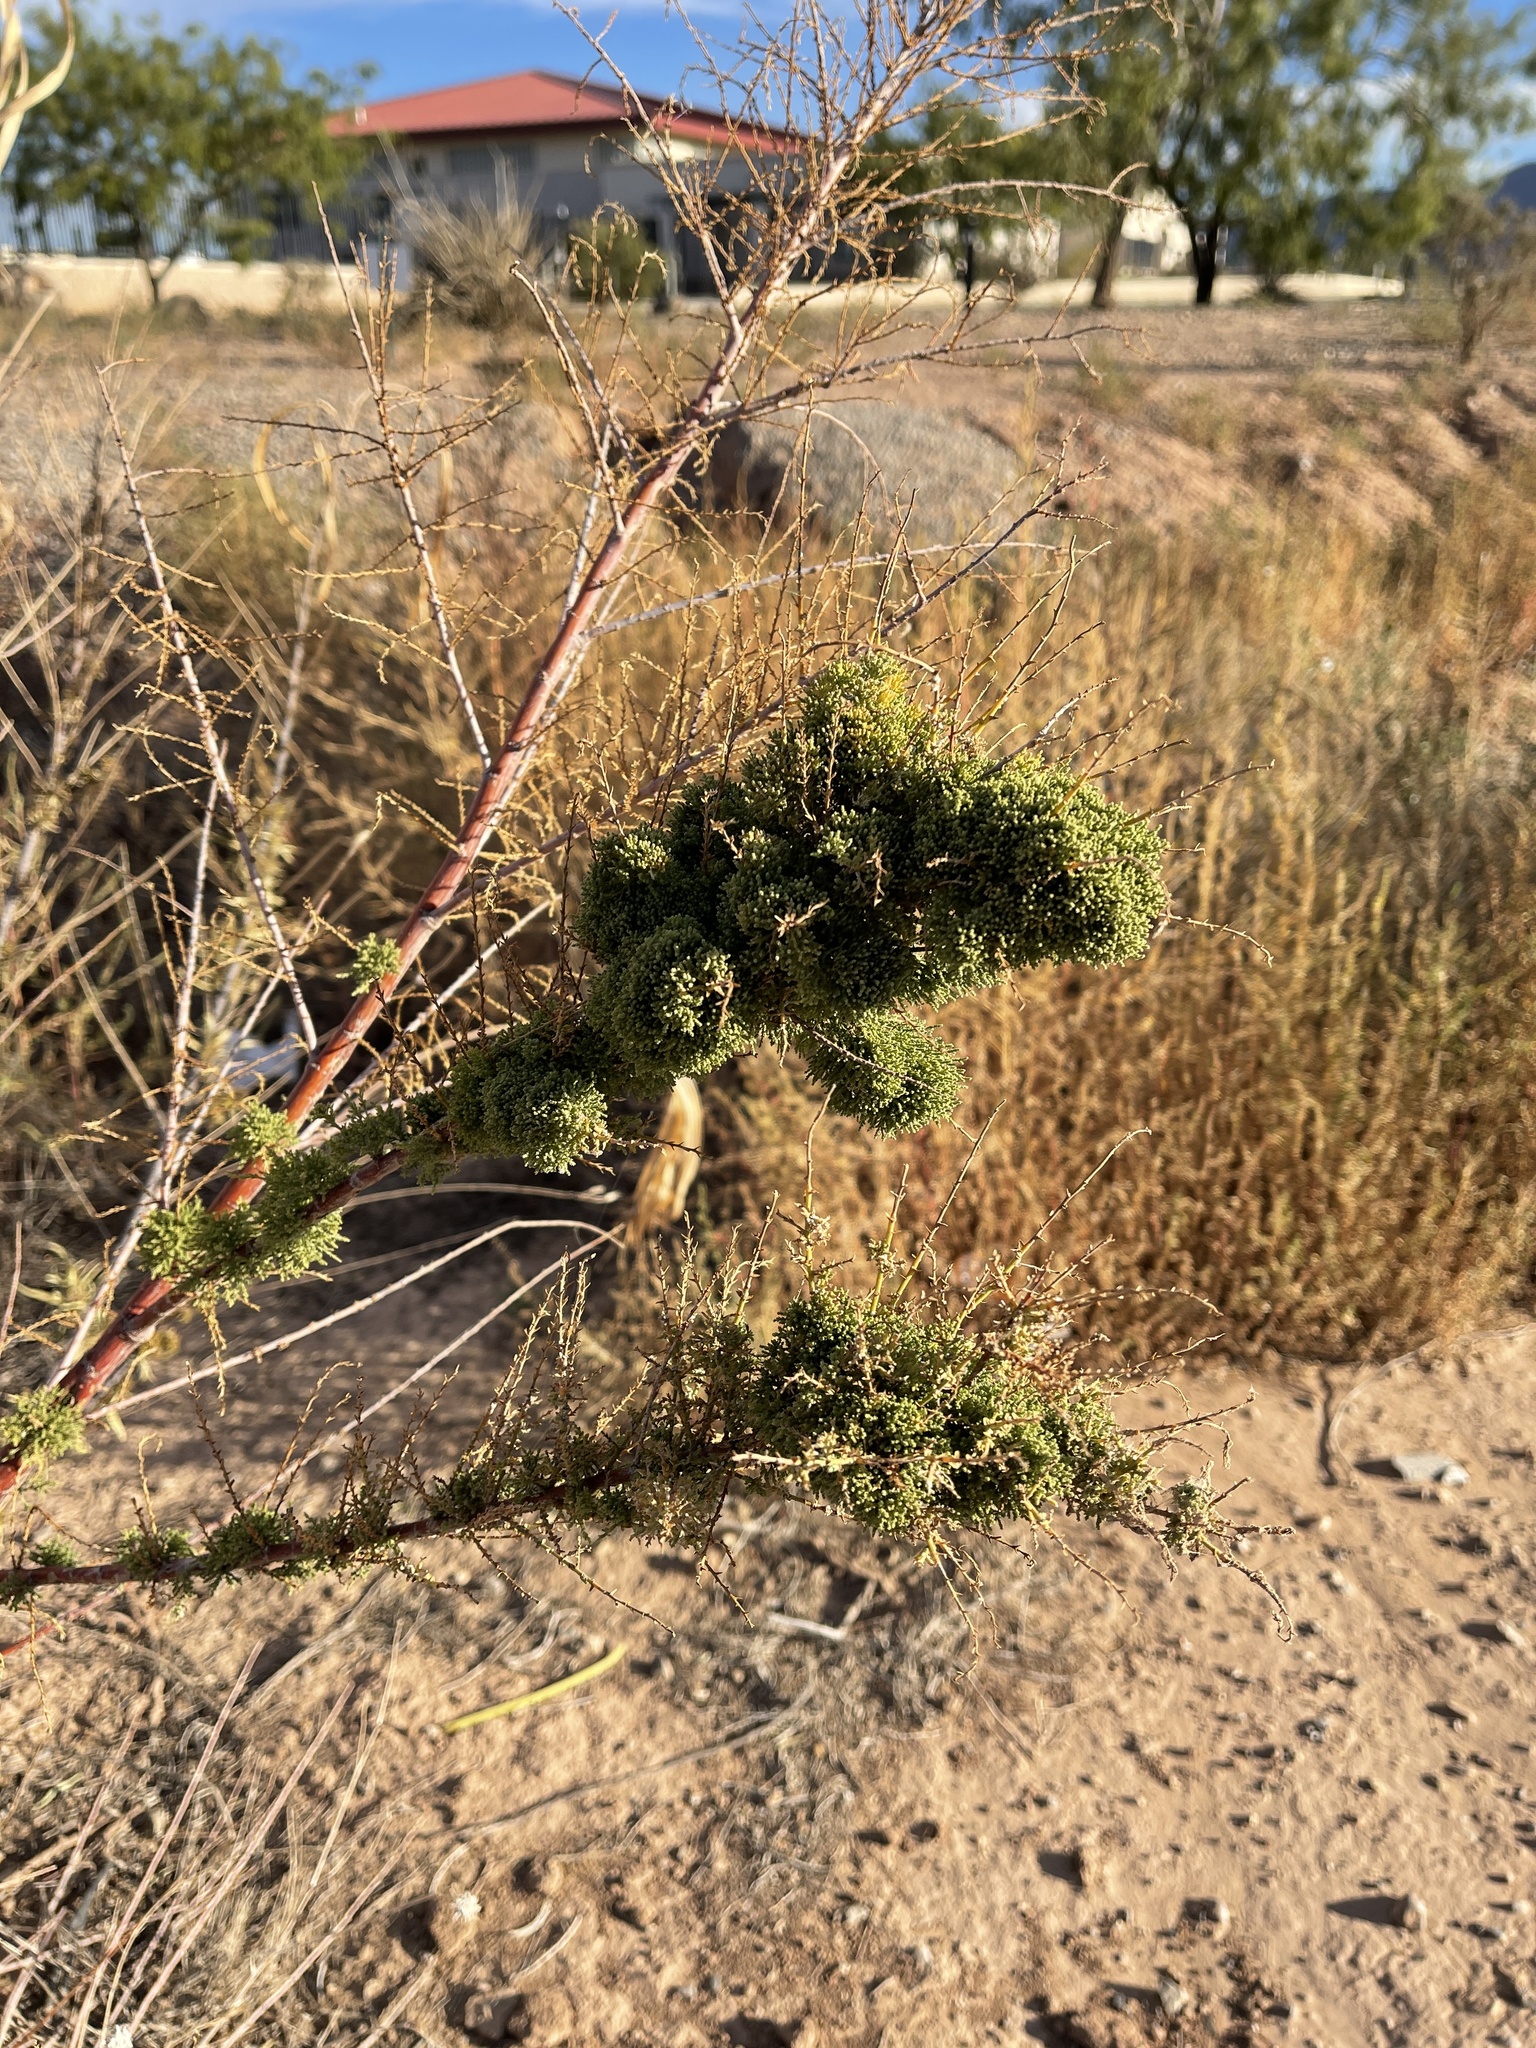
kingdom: Plantae
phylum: Tracheophyta
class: Magnoliopsida
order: Caryophyllales
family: Tamaricaceae
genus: Tamarix
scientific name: Tamarix
